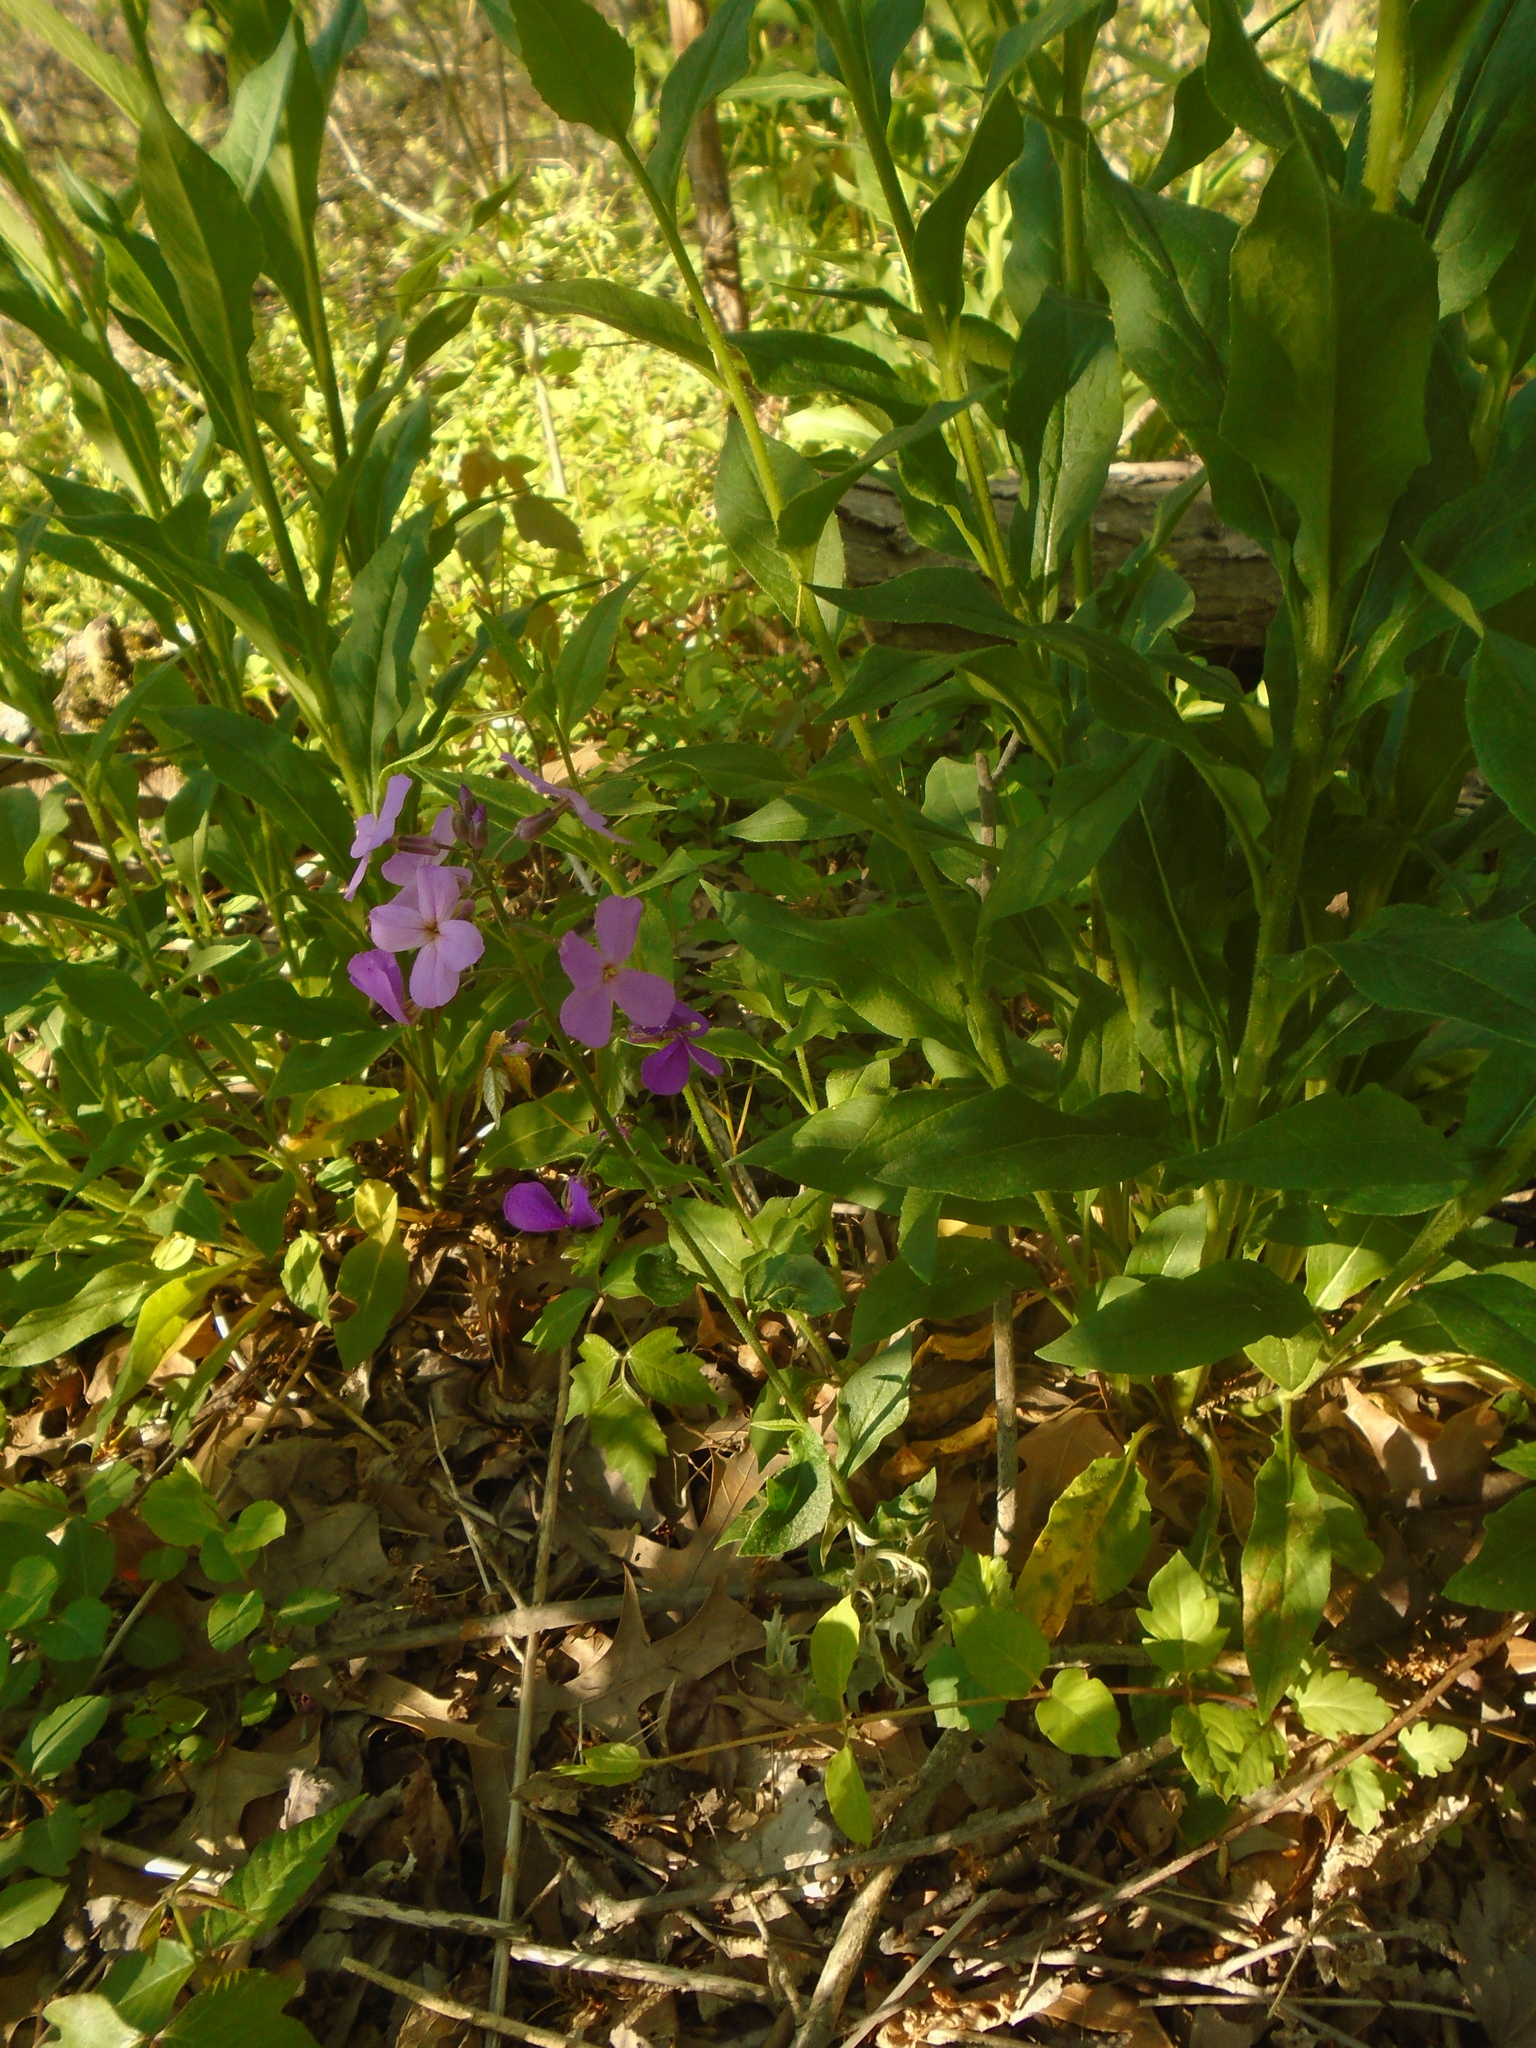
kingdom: Plantae
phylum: Tracheophyta
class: Magnoliopsida
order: Brassicales
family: Brassicaceae
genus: Hesperis
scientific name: Hesperis matronalis
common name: Dame's-violet
